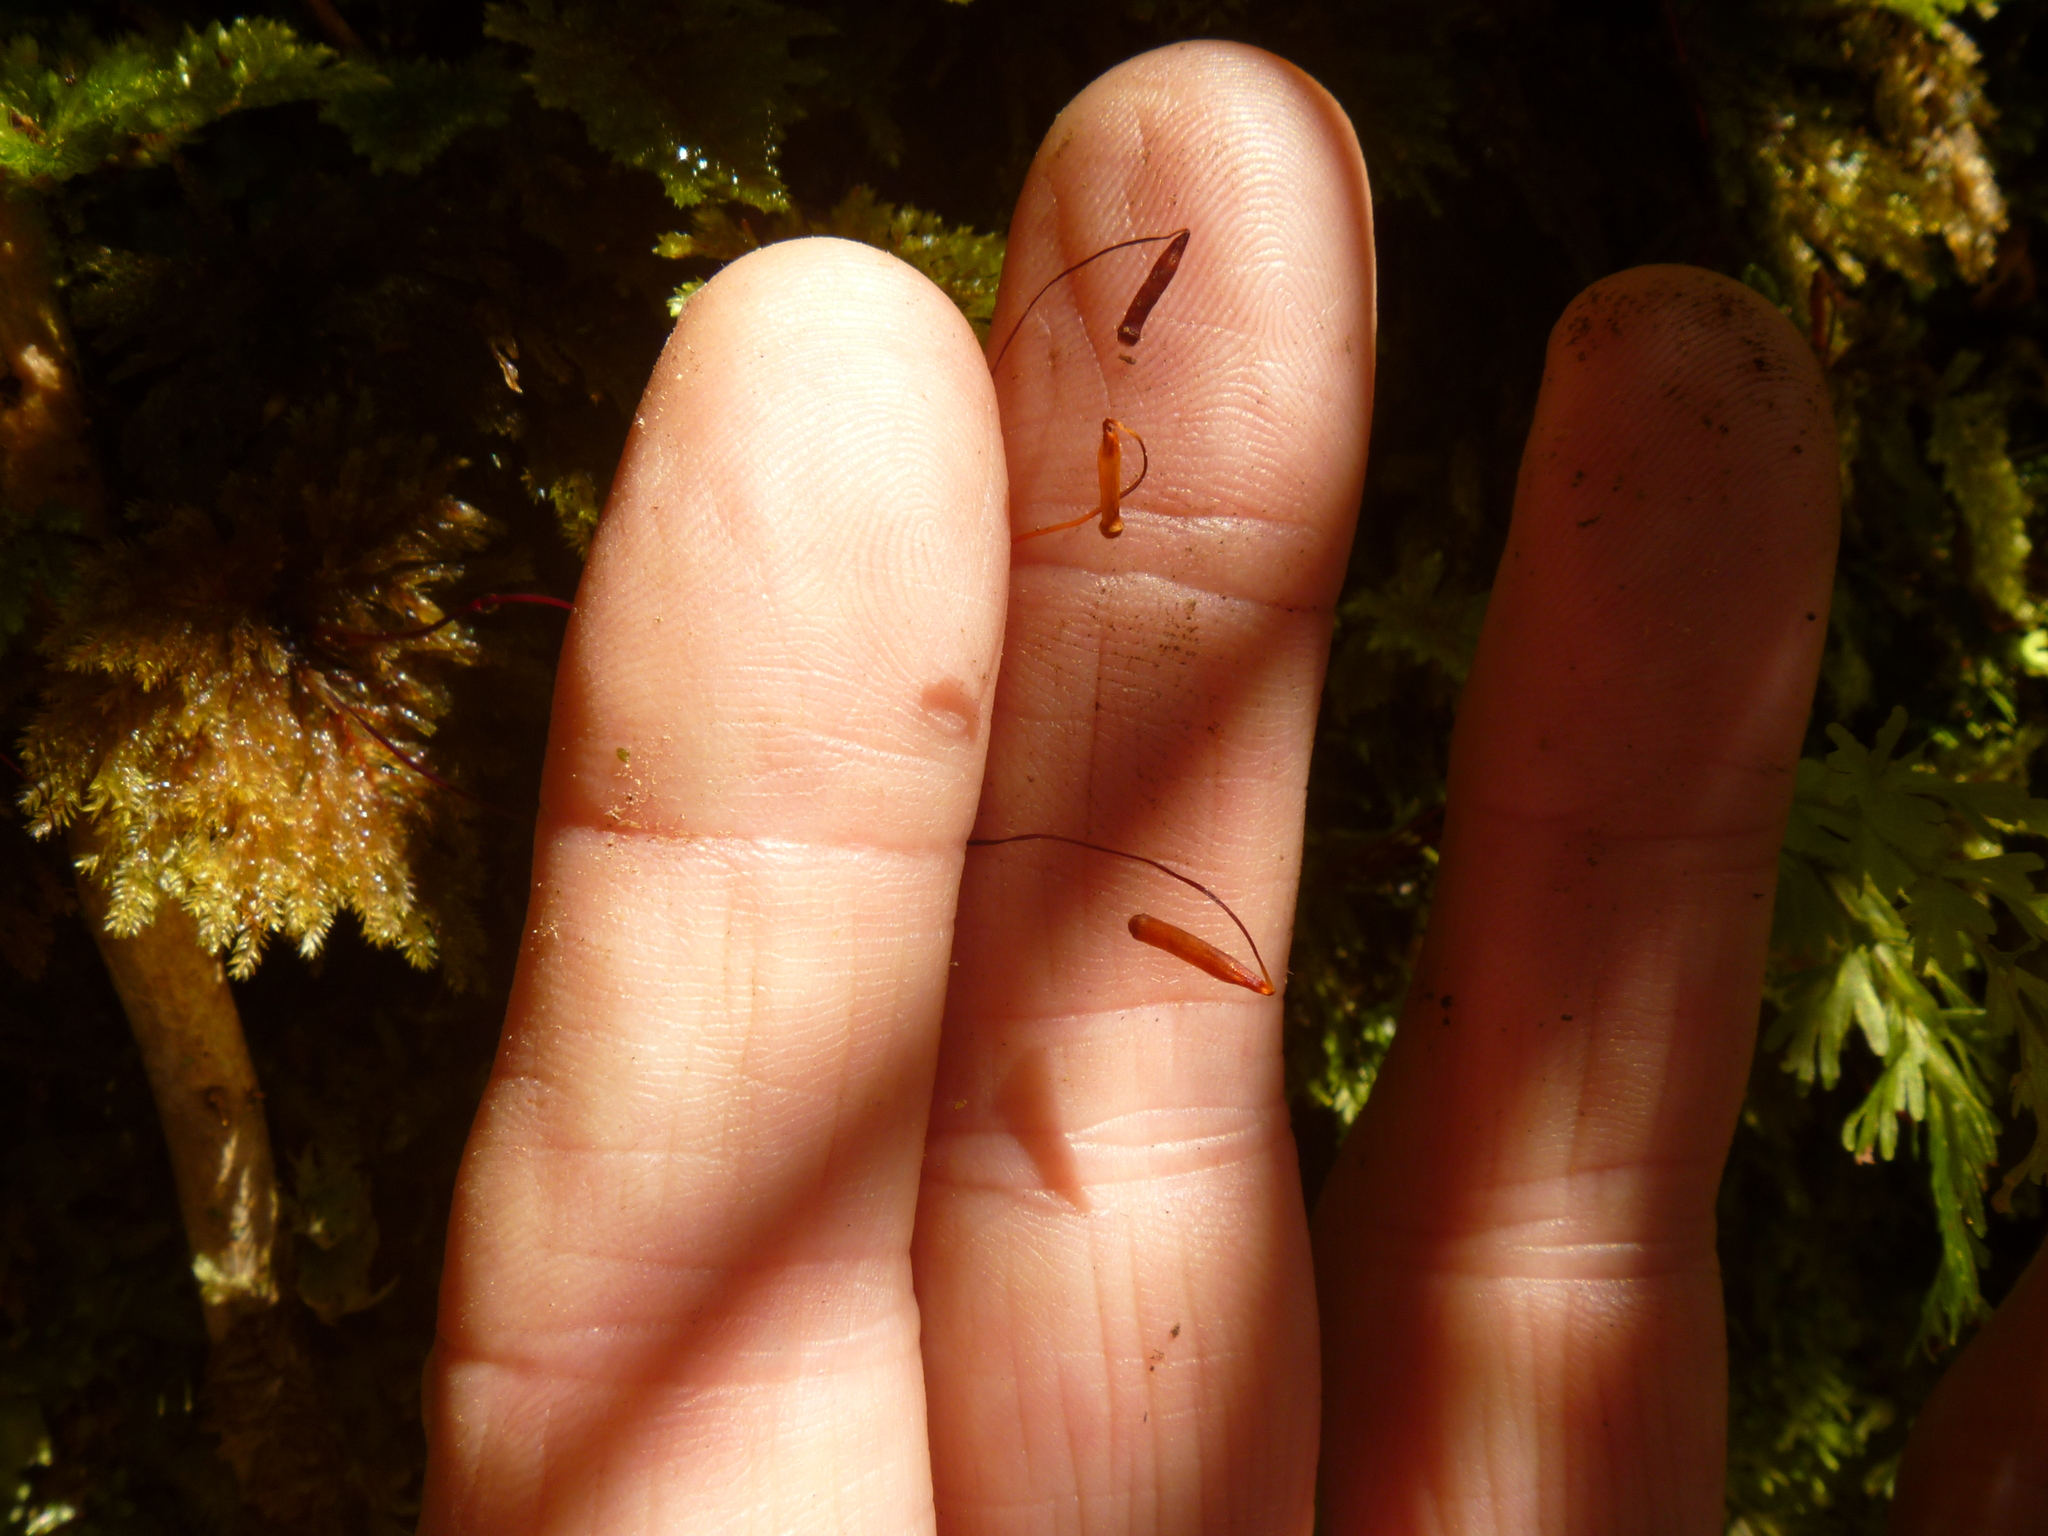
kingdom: Plantae
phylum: Bryophyta
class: Bryopsida
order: Hypnodendrales
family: Pterobryellaceae
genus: Sciadocladus
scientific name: Sciadocladus menziesii
